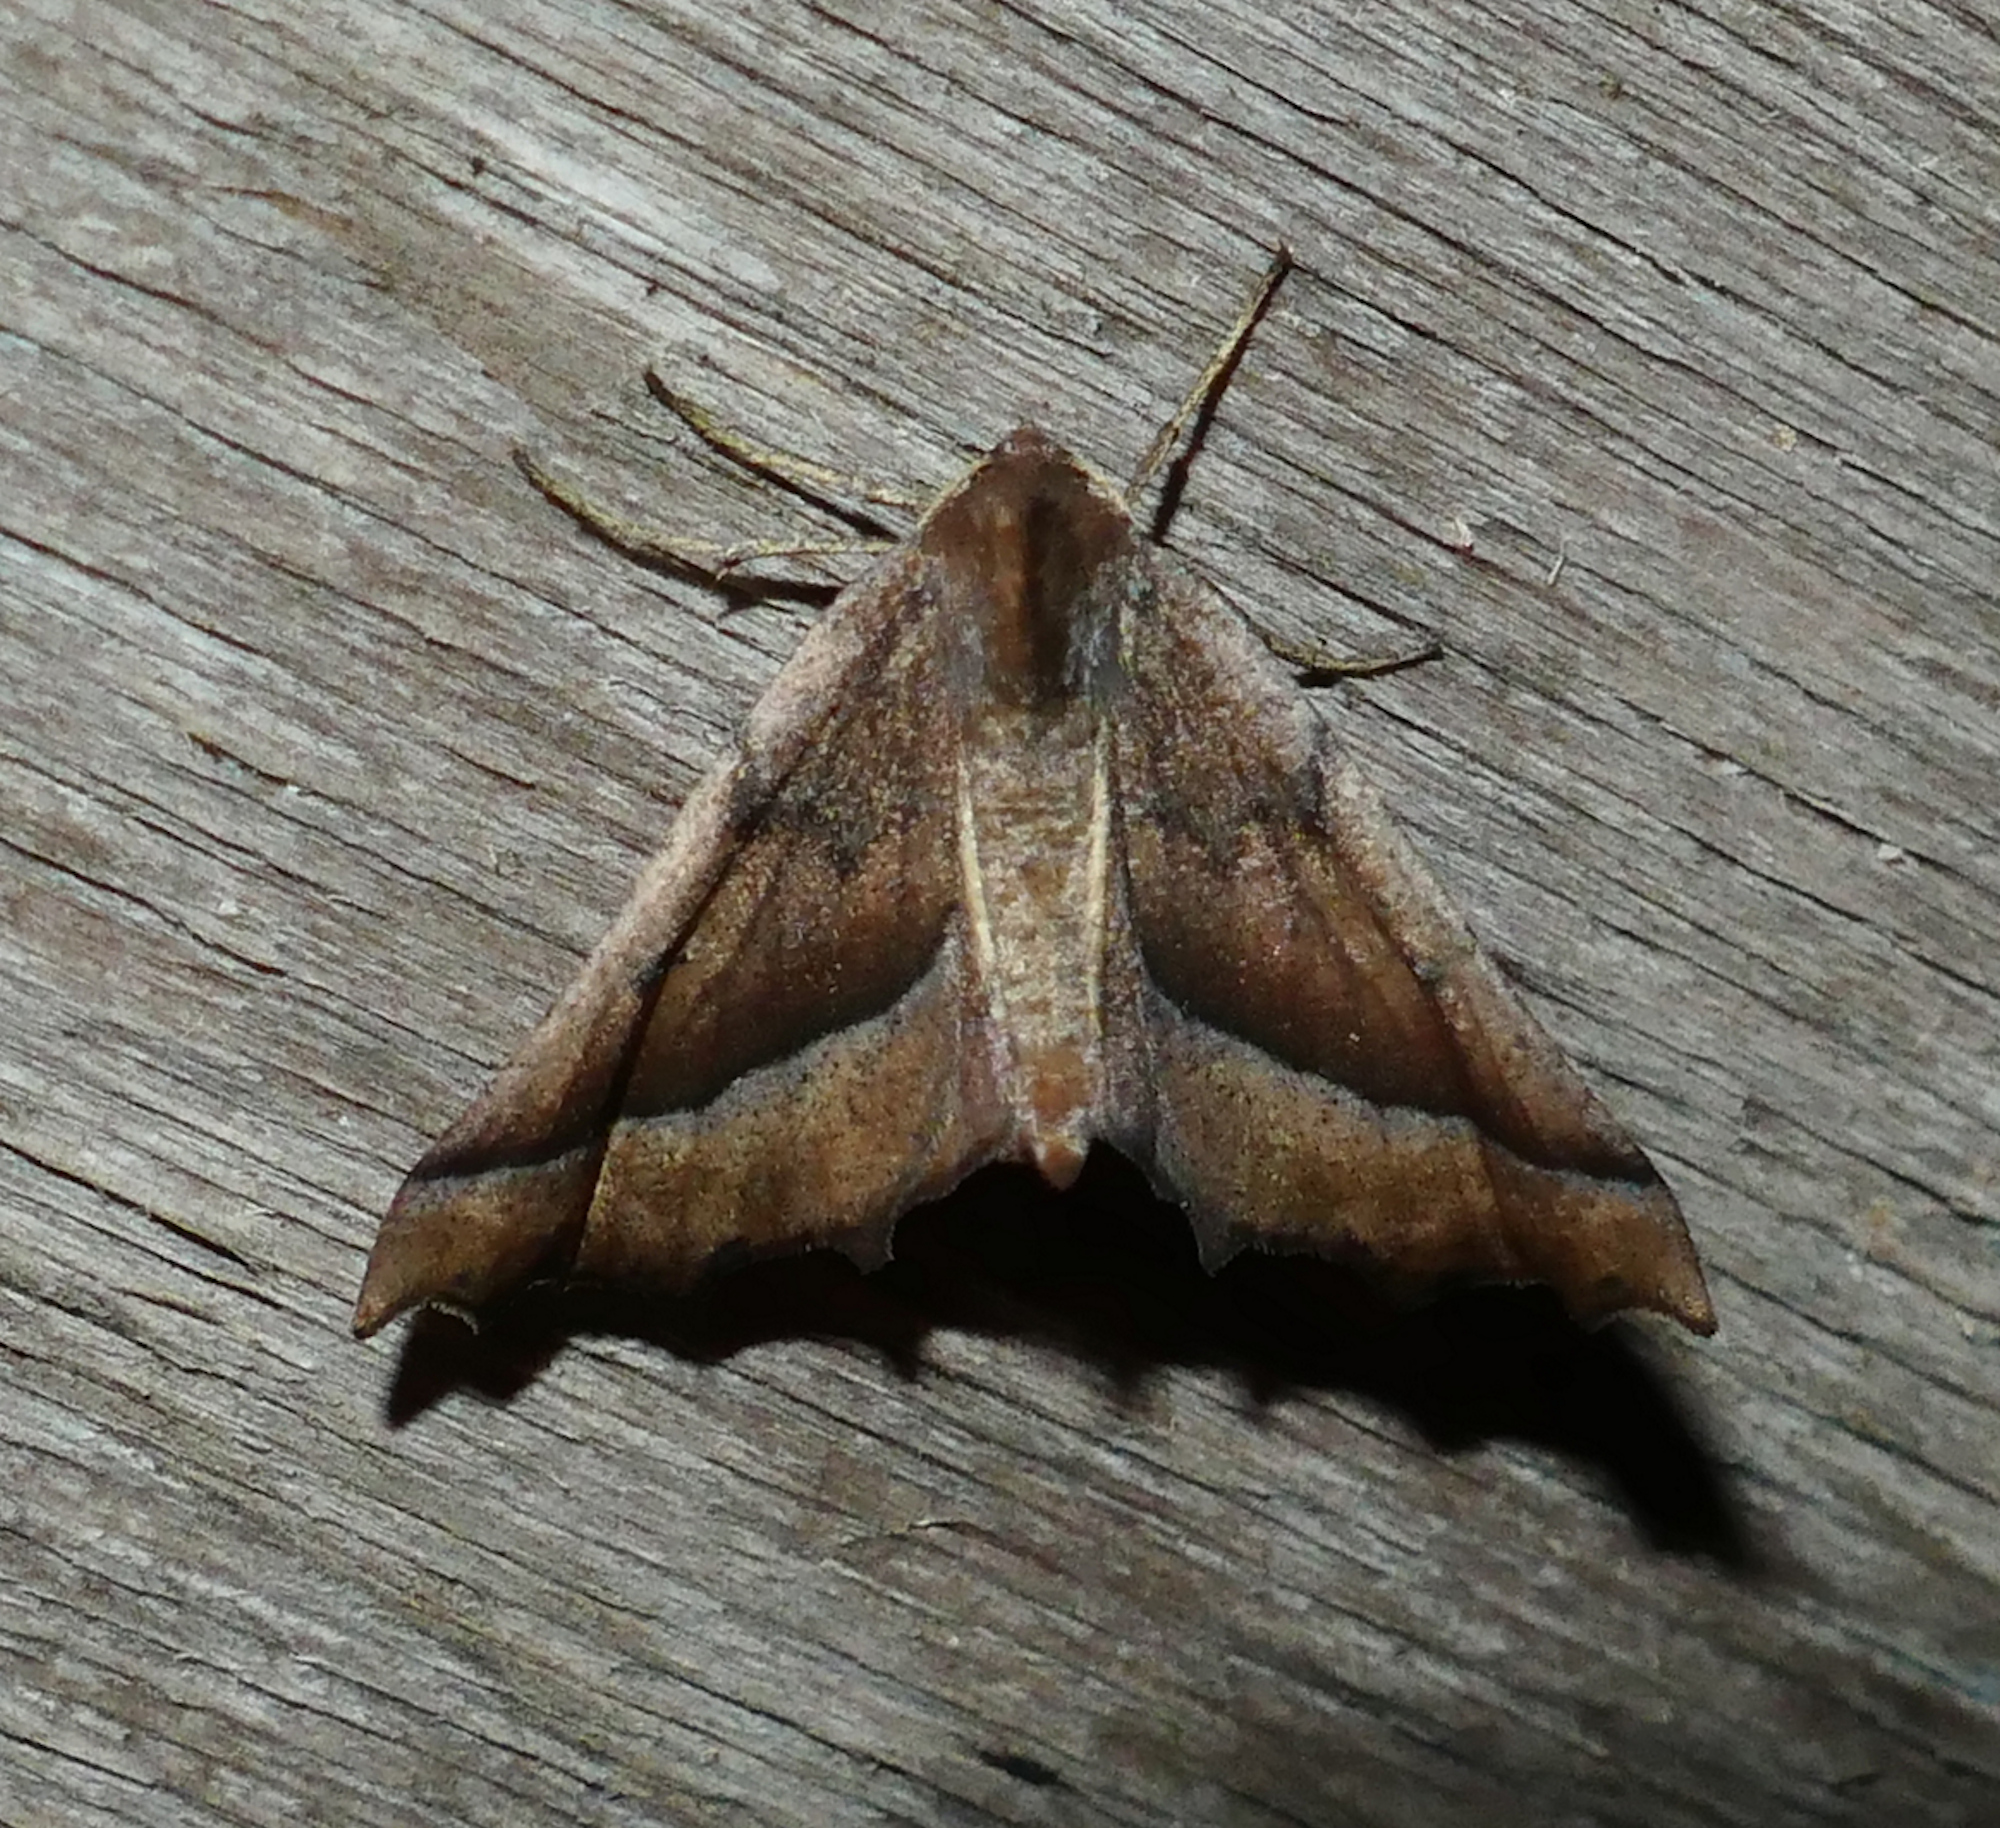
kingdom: Animalia
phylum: Arthropoda
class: Insecta
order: Lepidoptera
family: Geometridae
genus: Pero
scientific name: Pero zalissaria
